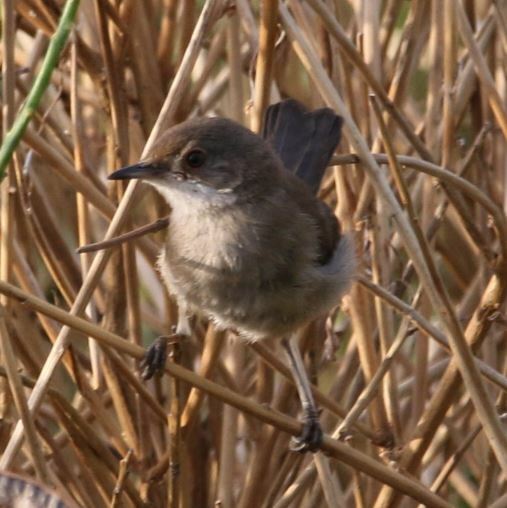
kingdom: Animalia
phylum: Chordata
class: Aves
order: Passeriformes
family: Sylviidae
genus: Curruca
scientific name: Curruca melanocephala
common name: Sardinian warbler
